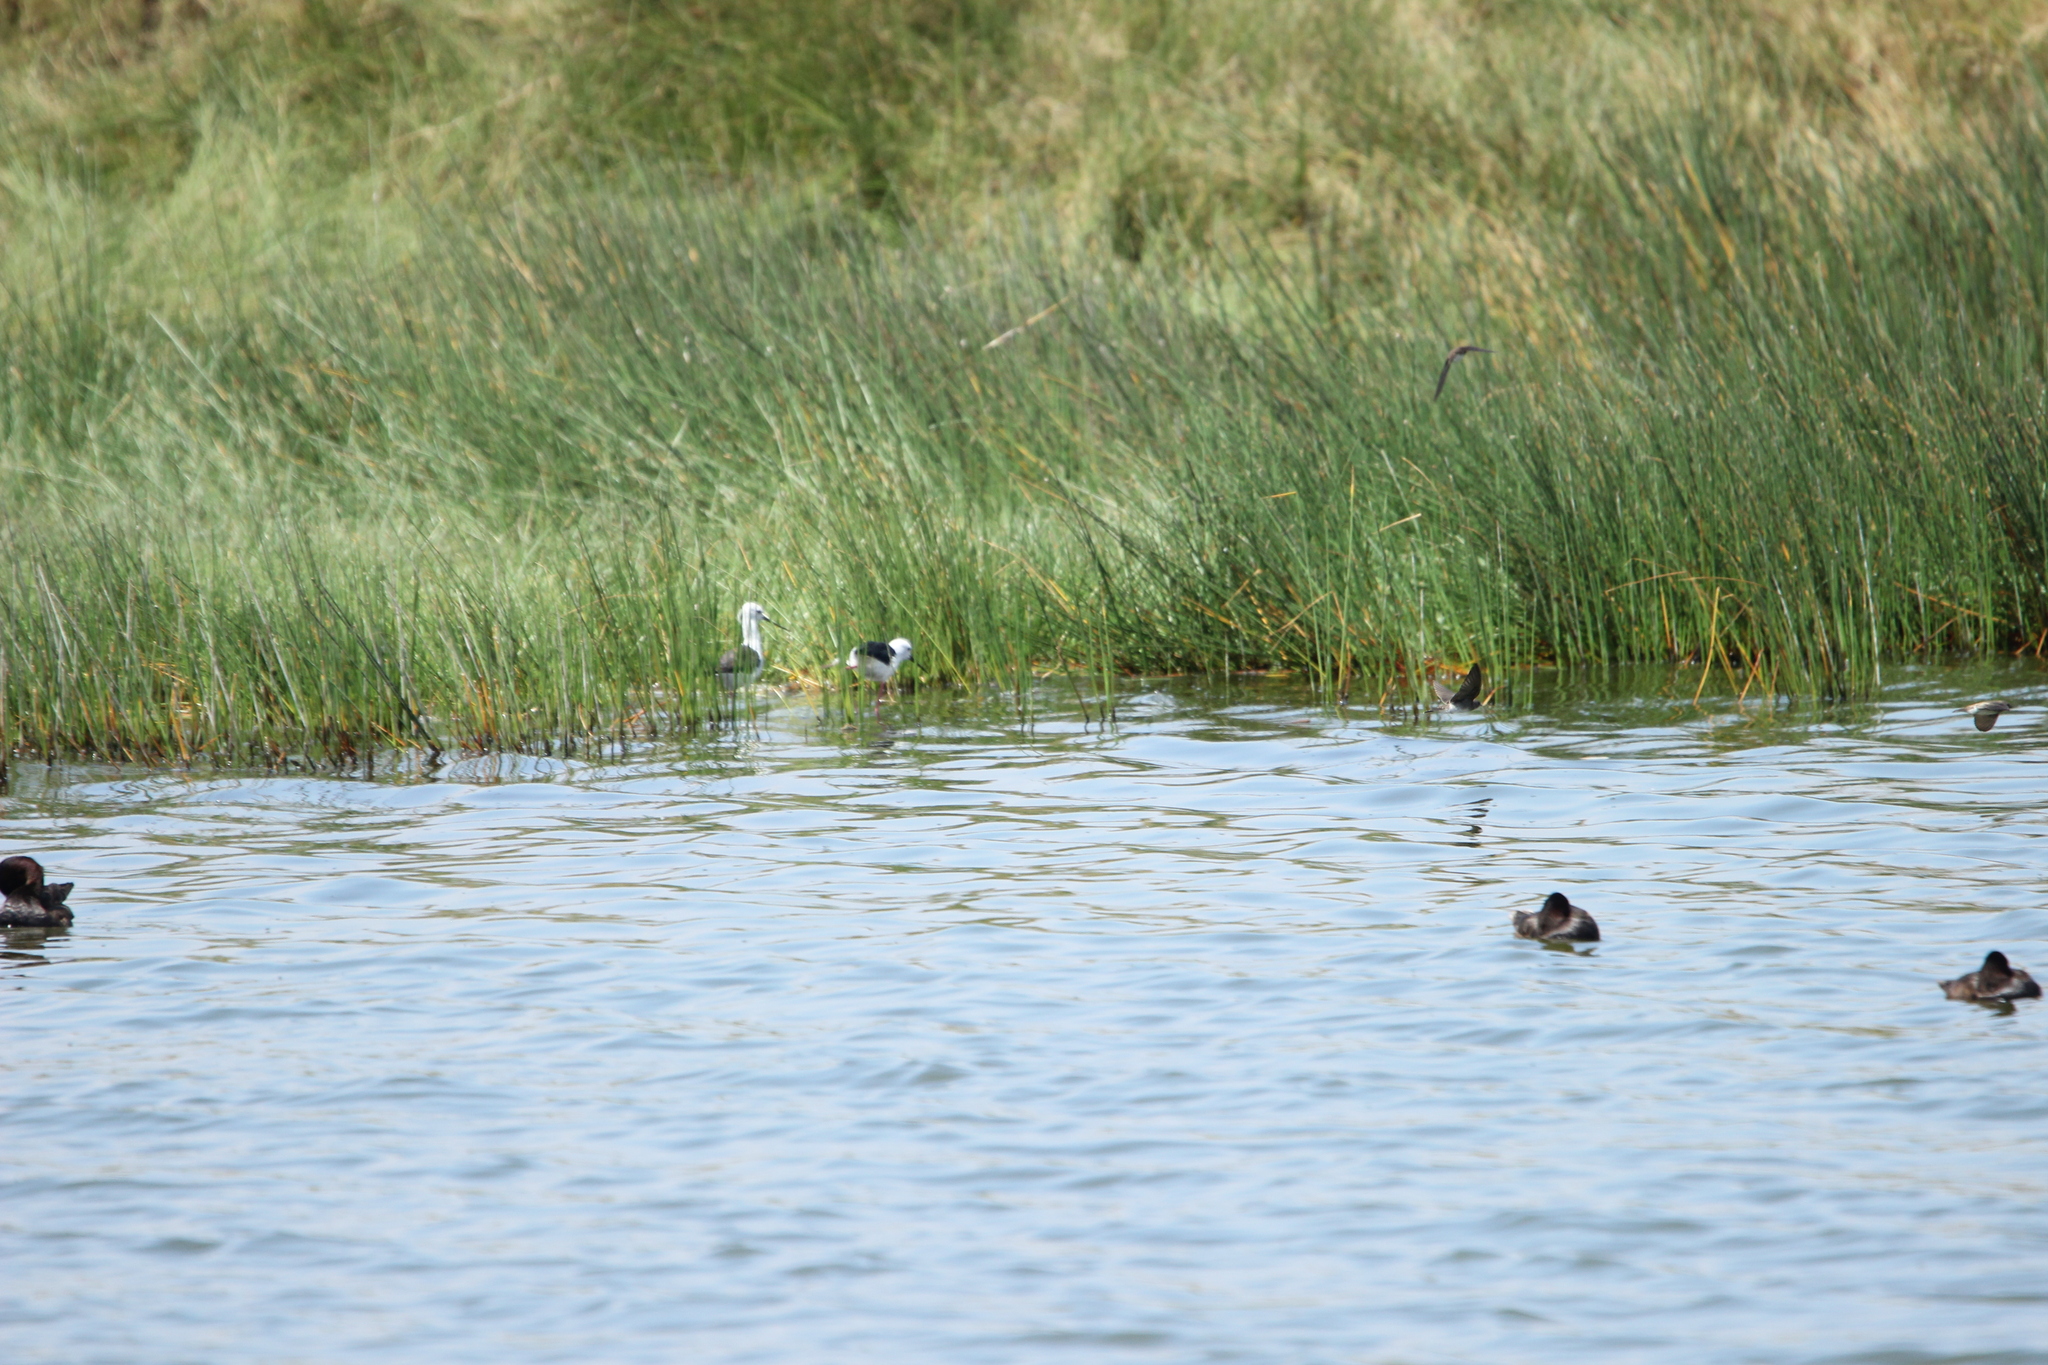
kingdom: Animalia
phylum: Chordata
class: Aves
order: Charadriiformes
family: Recurvirostridae
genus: Himantopus
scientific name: Himantopus himantopus
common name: Black-winged stilt
